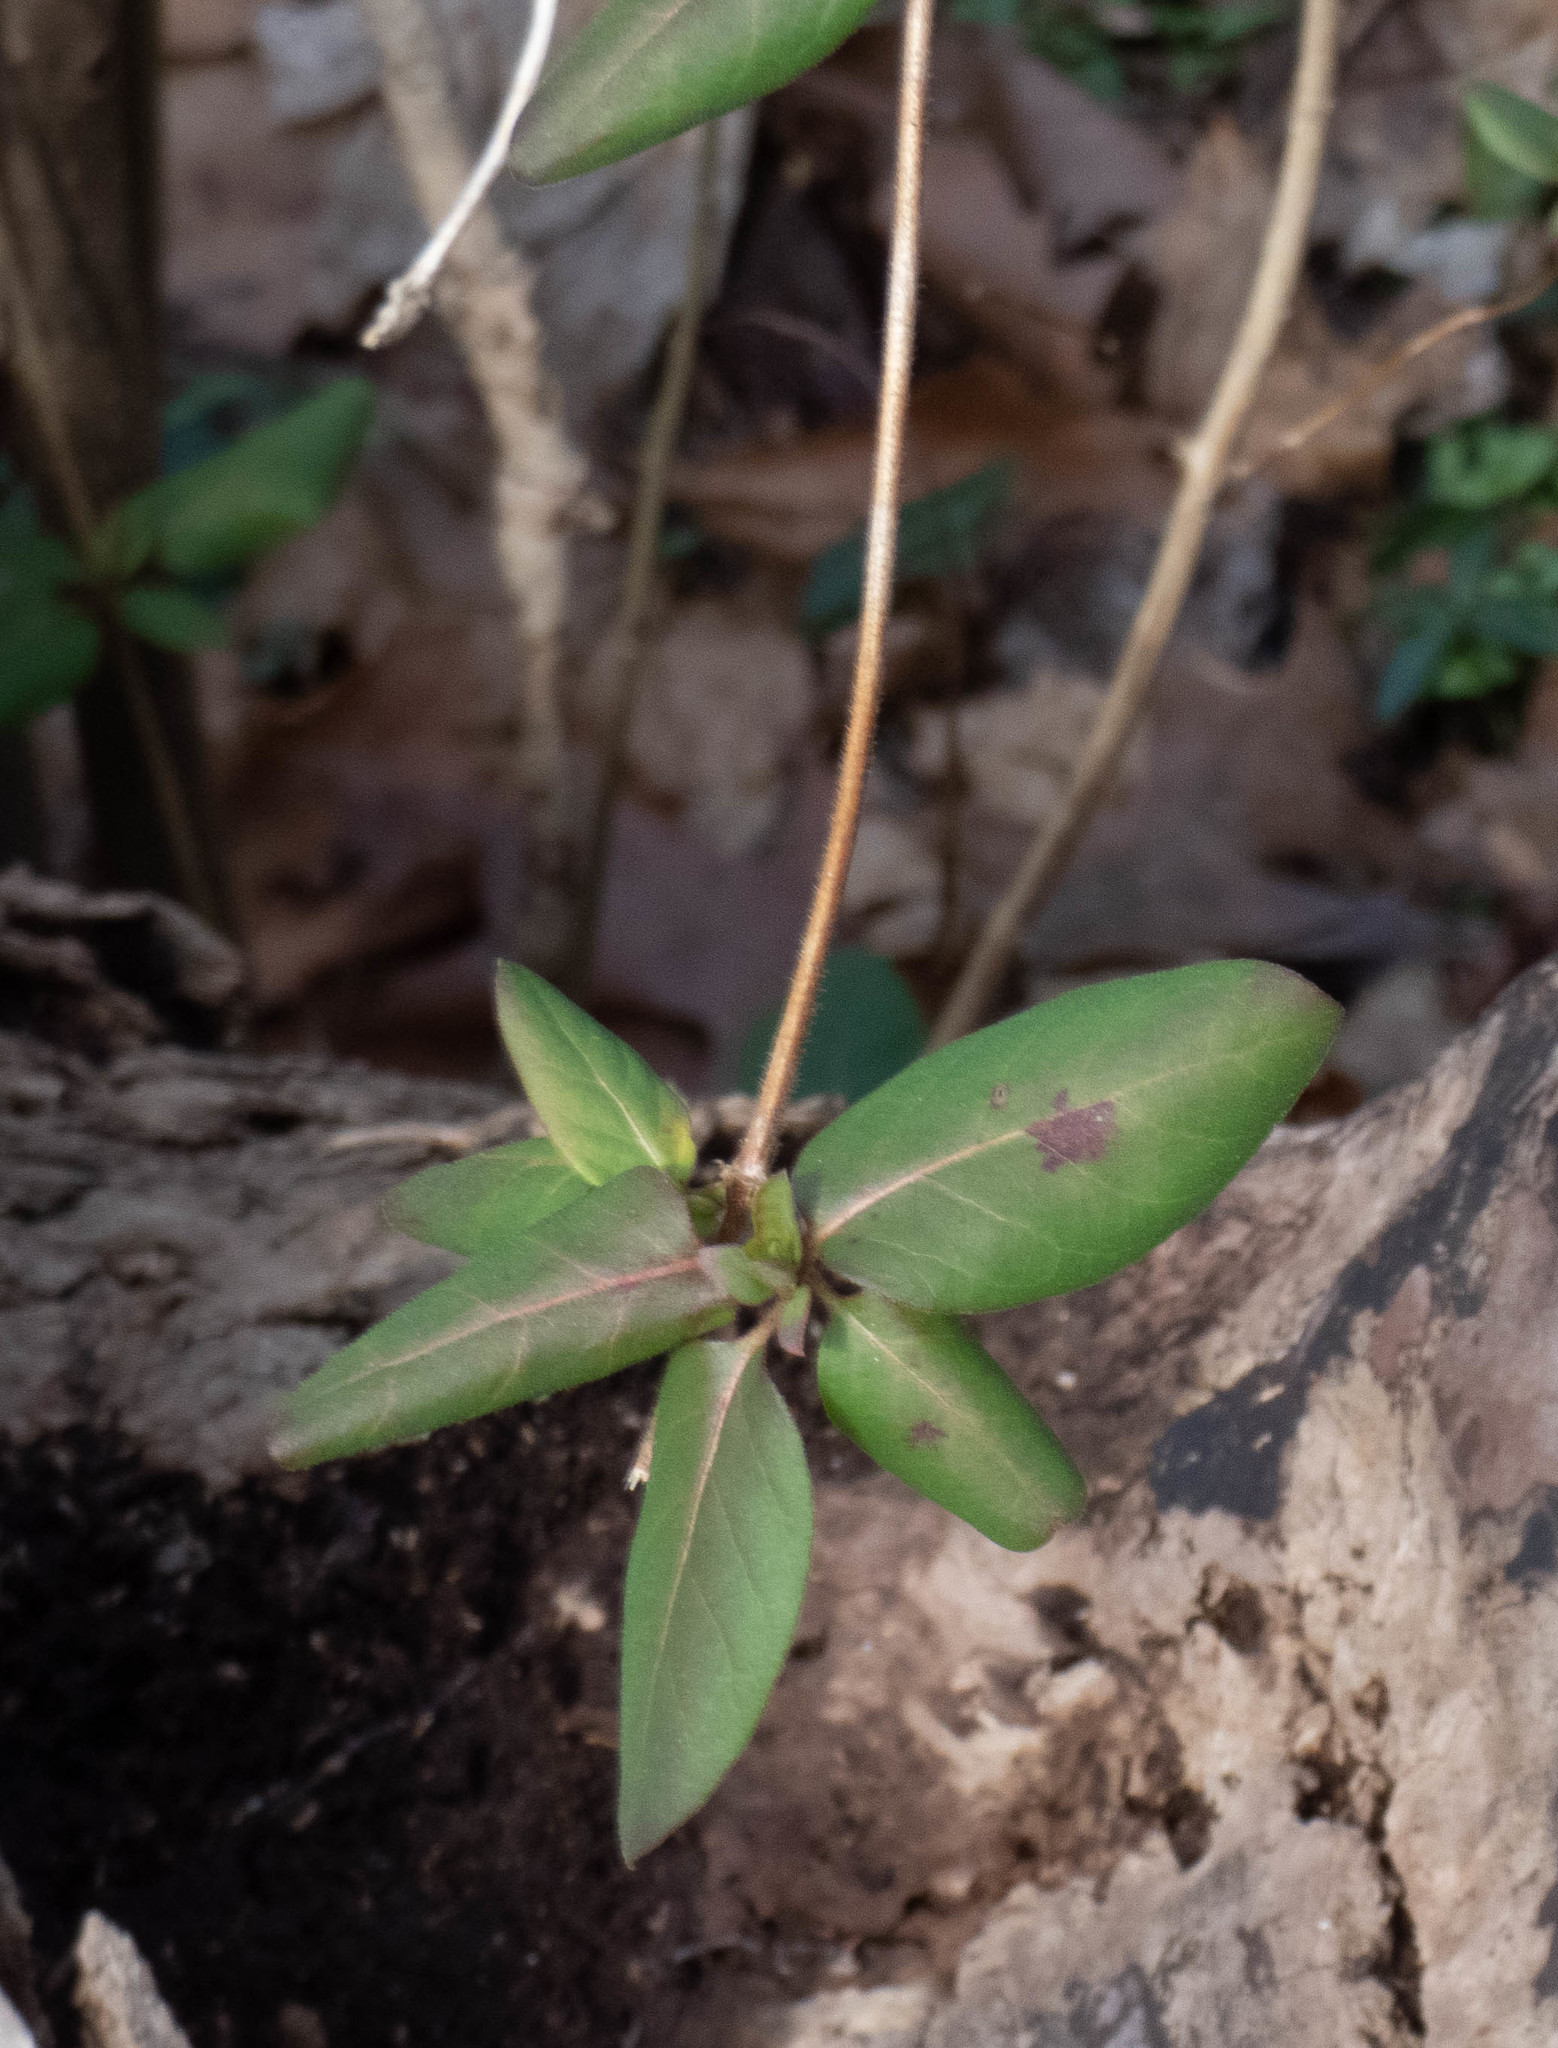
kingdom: Plantae
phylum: Tracheophyta
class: Magnoliopsida
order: Dipsacales
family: Caprifoliaceae
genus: Lonicera
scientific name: Lonicera japonica
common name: Japanese honeysuckle
